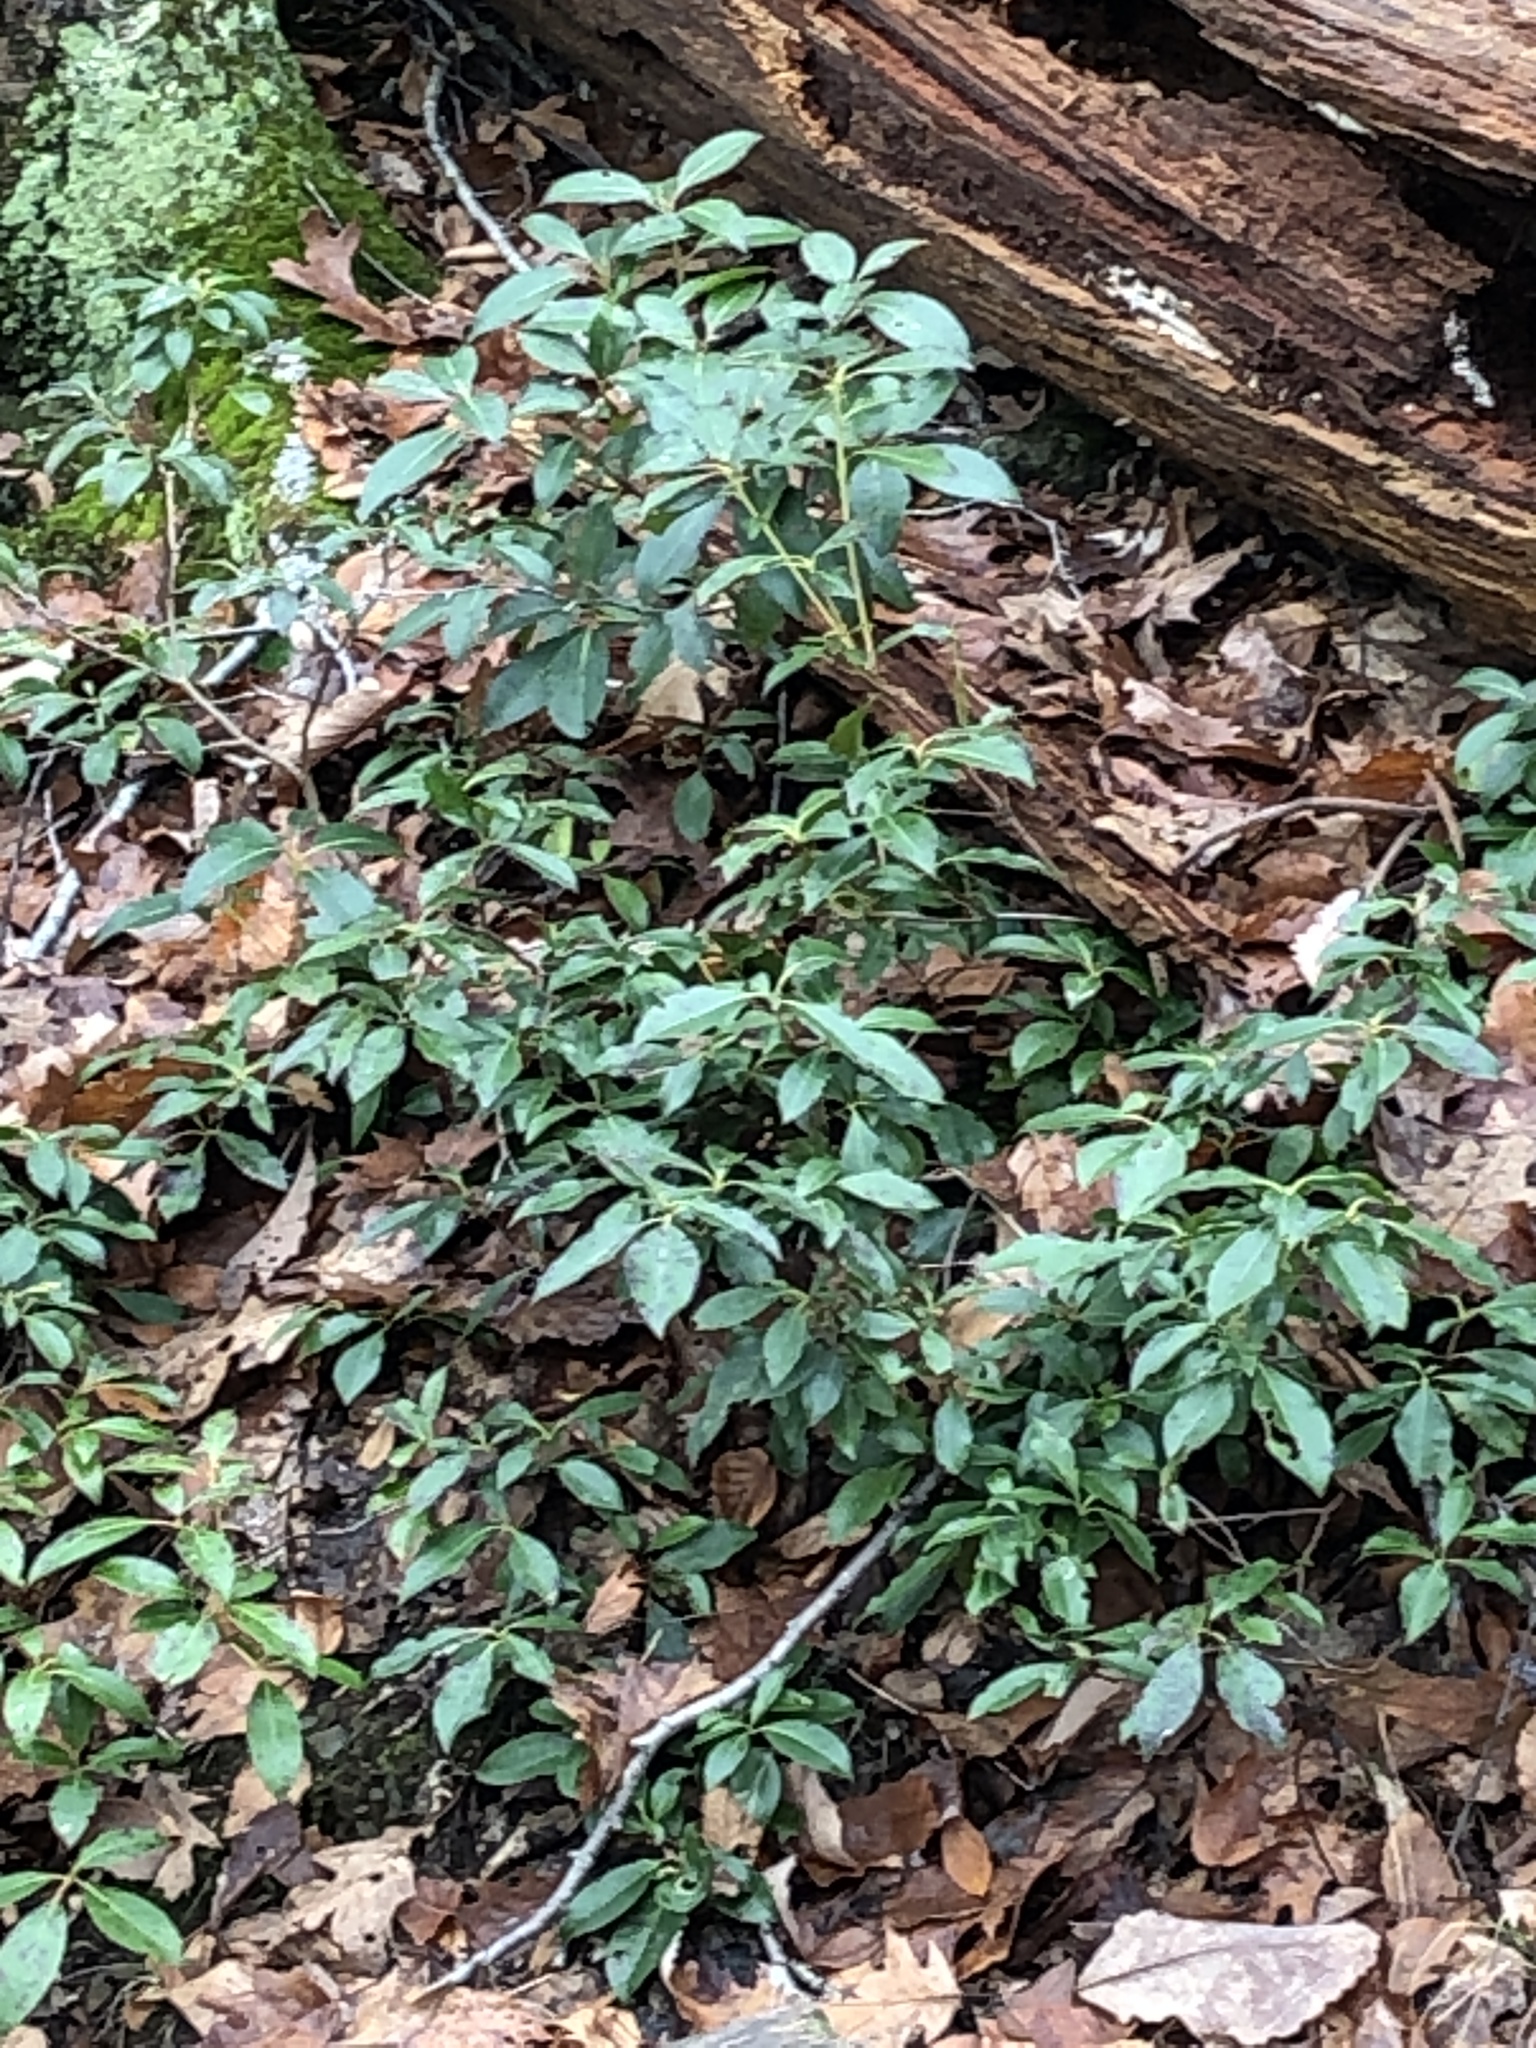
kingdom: Plantae
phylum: Tracheophyta
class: Magnoliopsida
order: Ericales
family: Ericaceae
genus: Kalmia
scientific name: Kalmia latifolia
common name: Mountain-laurel
